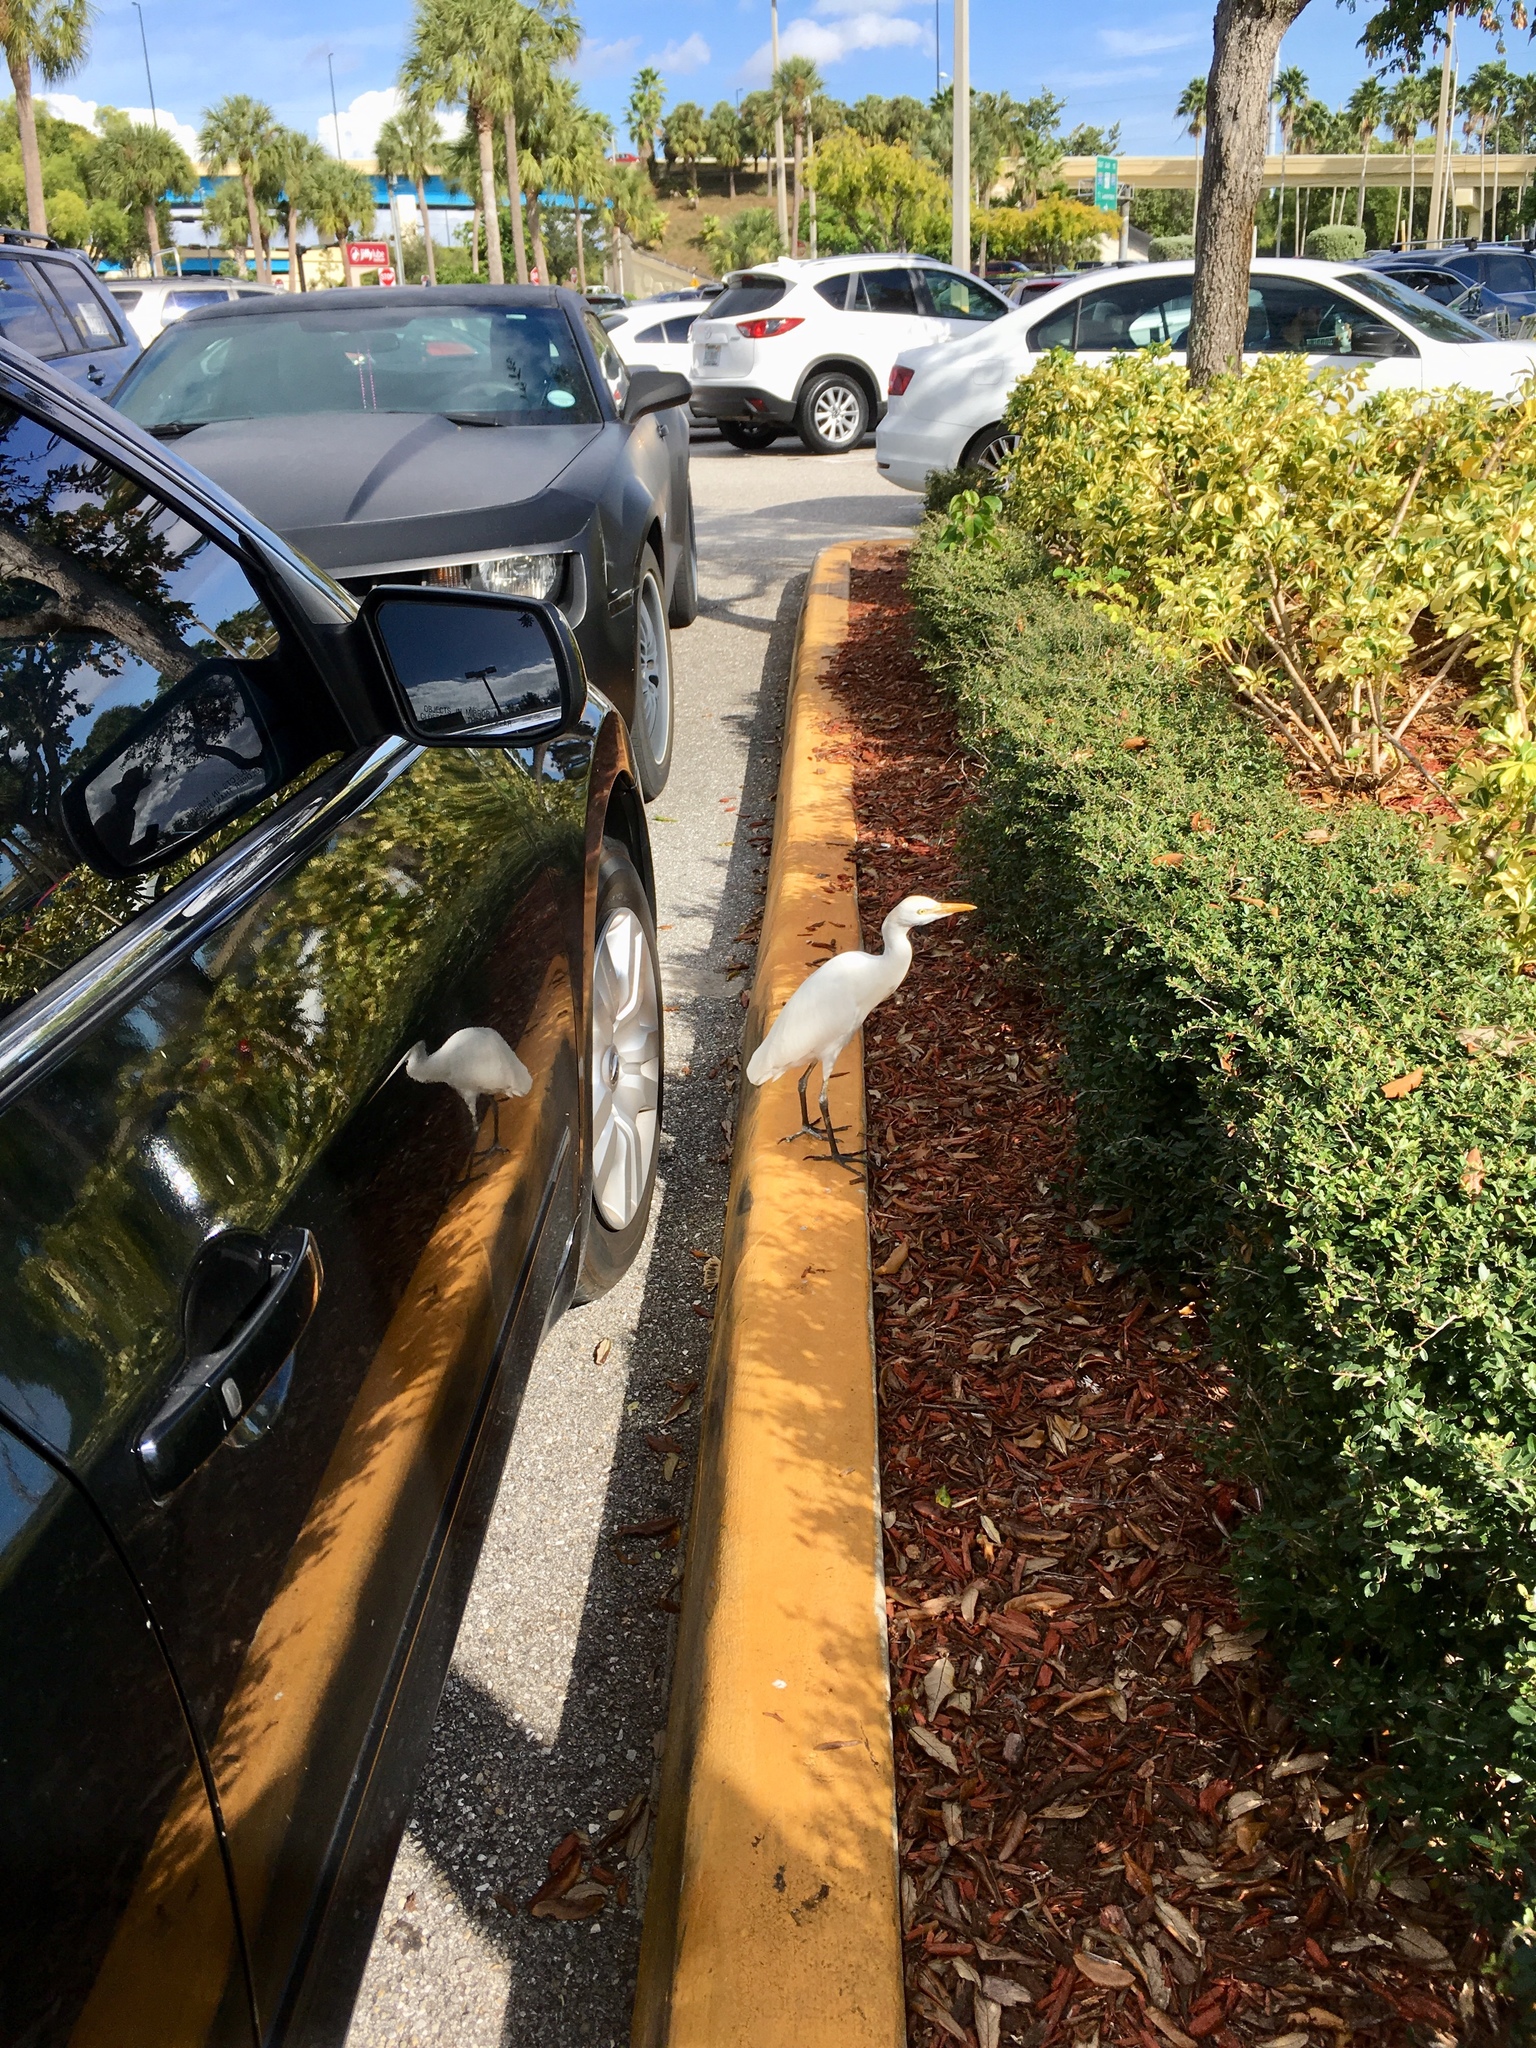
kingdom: Animalia
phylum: Chordata
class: Aves
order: Pelecaniformes
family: Ardeidae
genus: Bubulcus
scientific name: Bubulcus ibis
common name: Cattle egret
